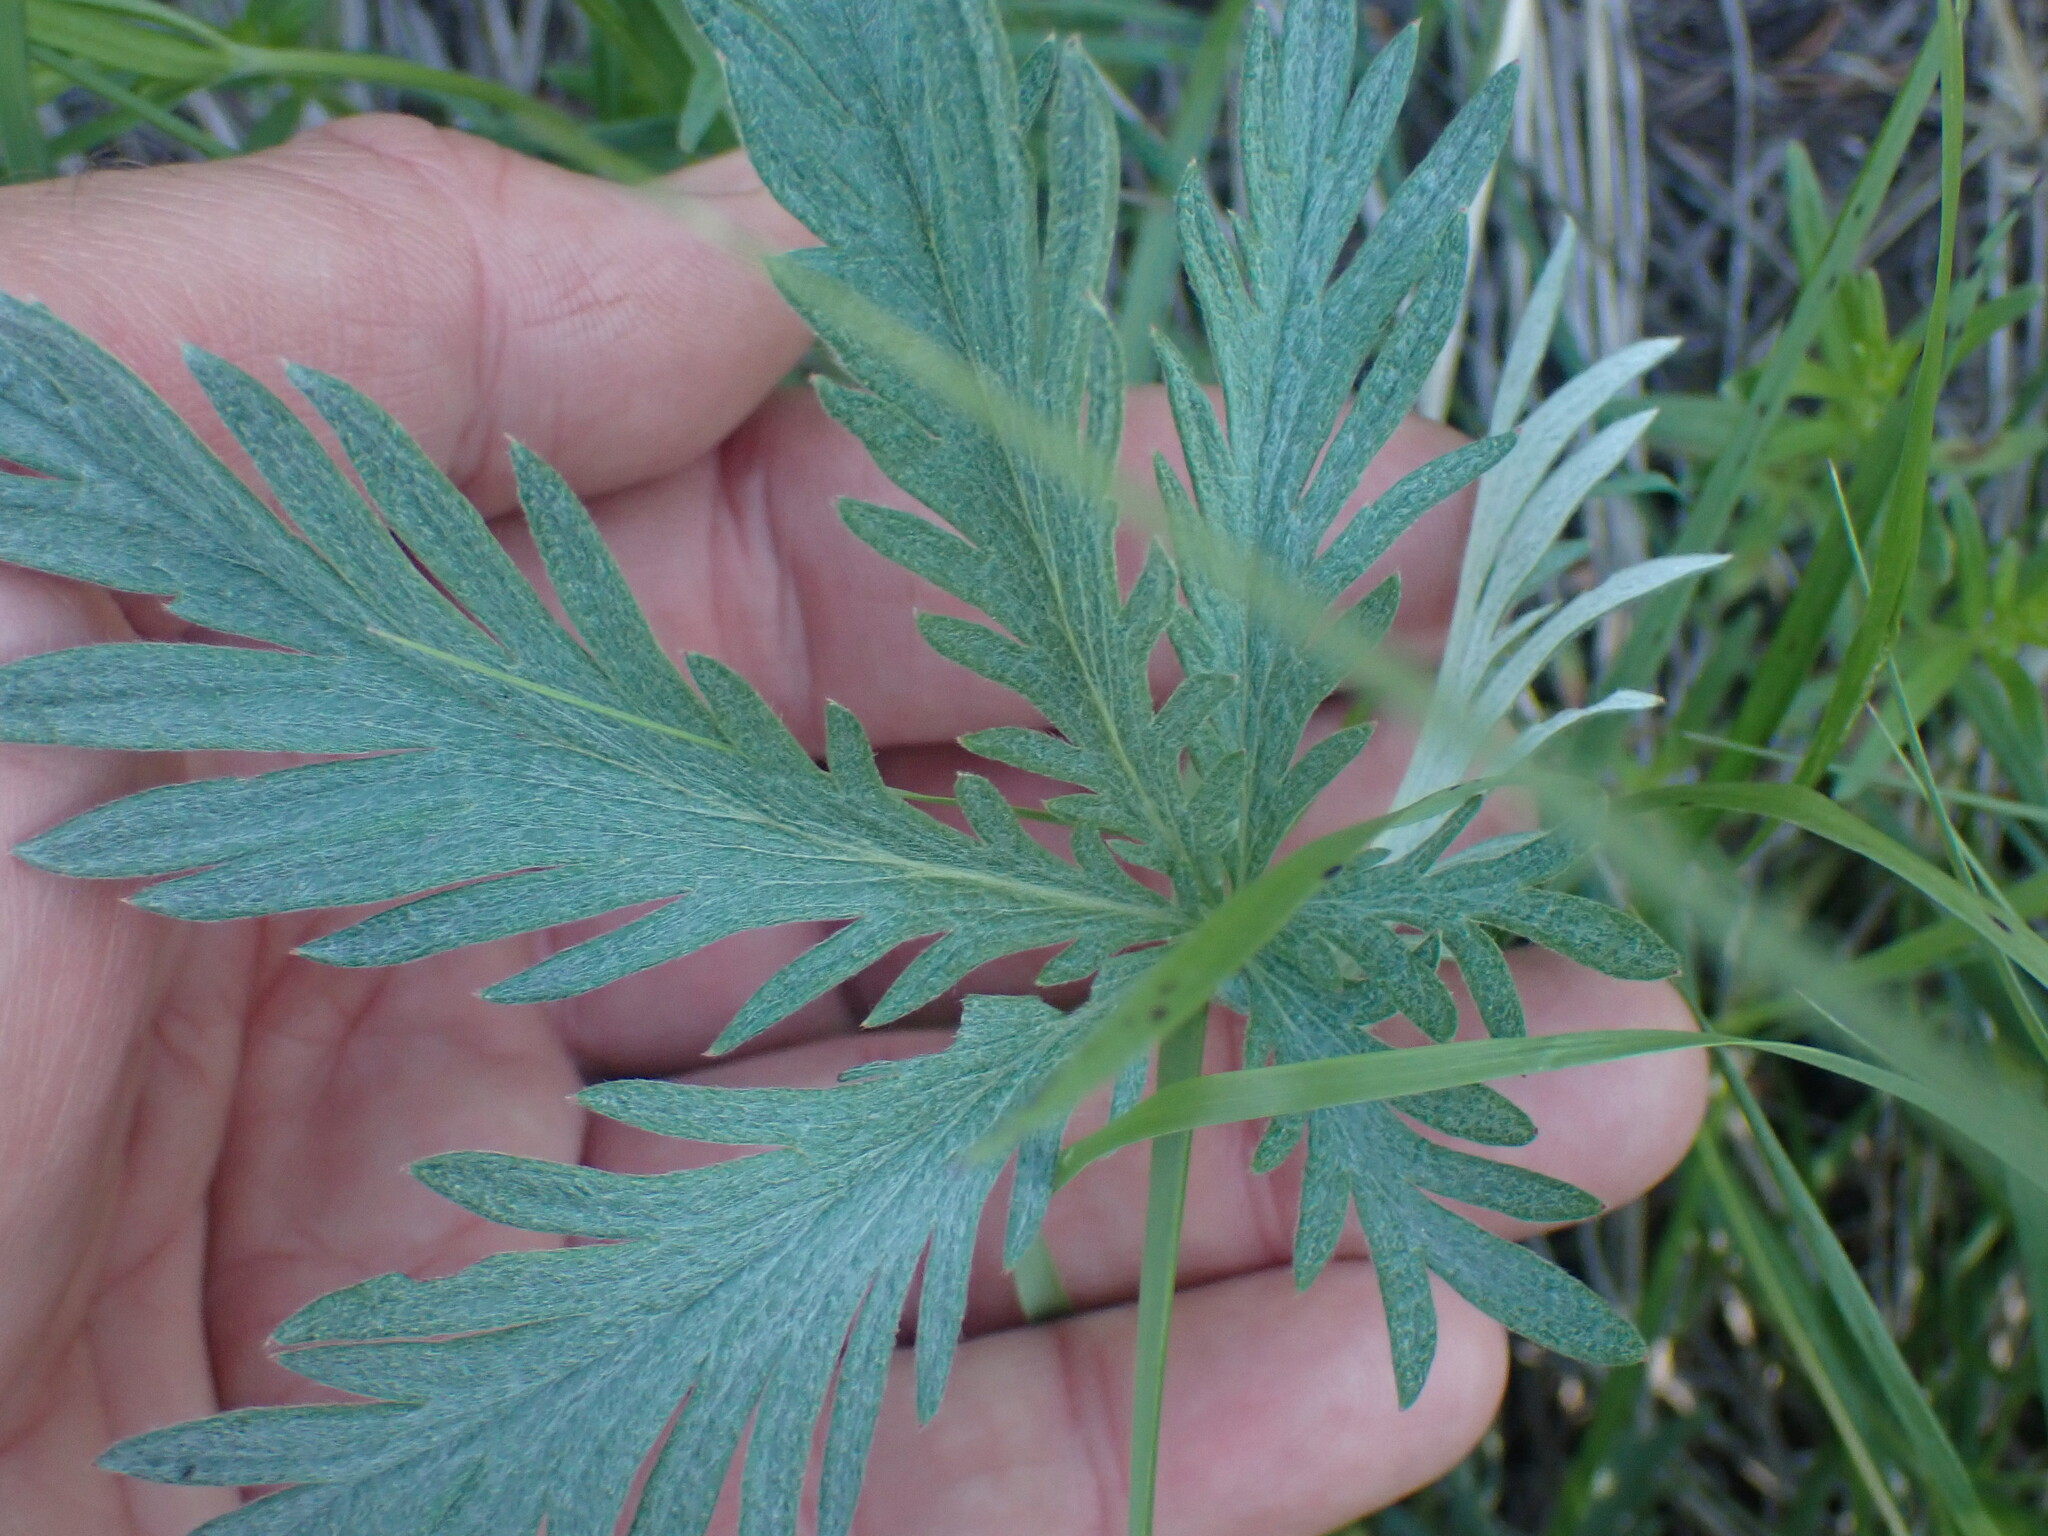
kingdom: Plantae
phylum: Tracheophyta
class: Magnoliopsida
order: Rosales
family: Rosaceae
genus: Potentilla
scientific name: Potentilla gracilis
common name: Graceful cinquefoil
